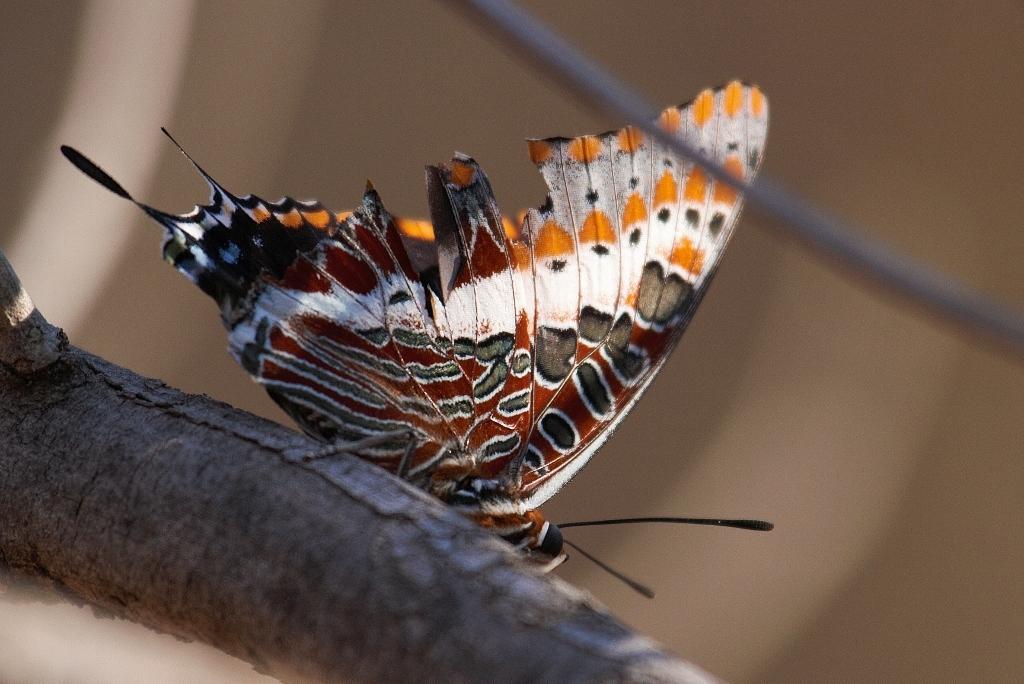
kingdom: Animalia
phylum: Arthropoda
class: Insecta
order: Lepidoptera
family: Nymphalidae
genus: Charaxes
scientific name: Charaxes jasius
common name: Two tailed pasha
